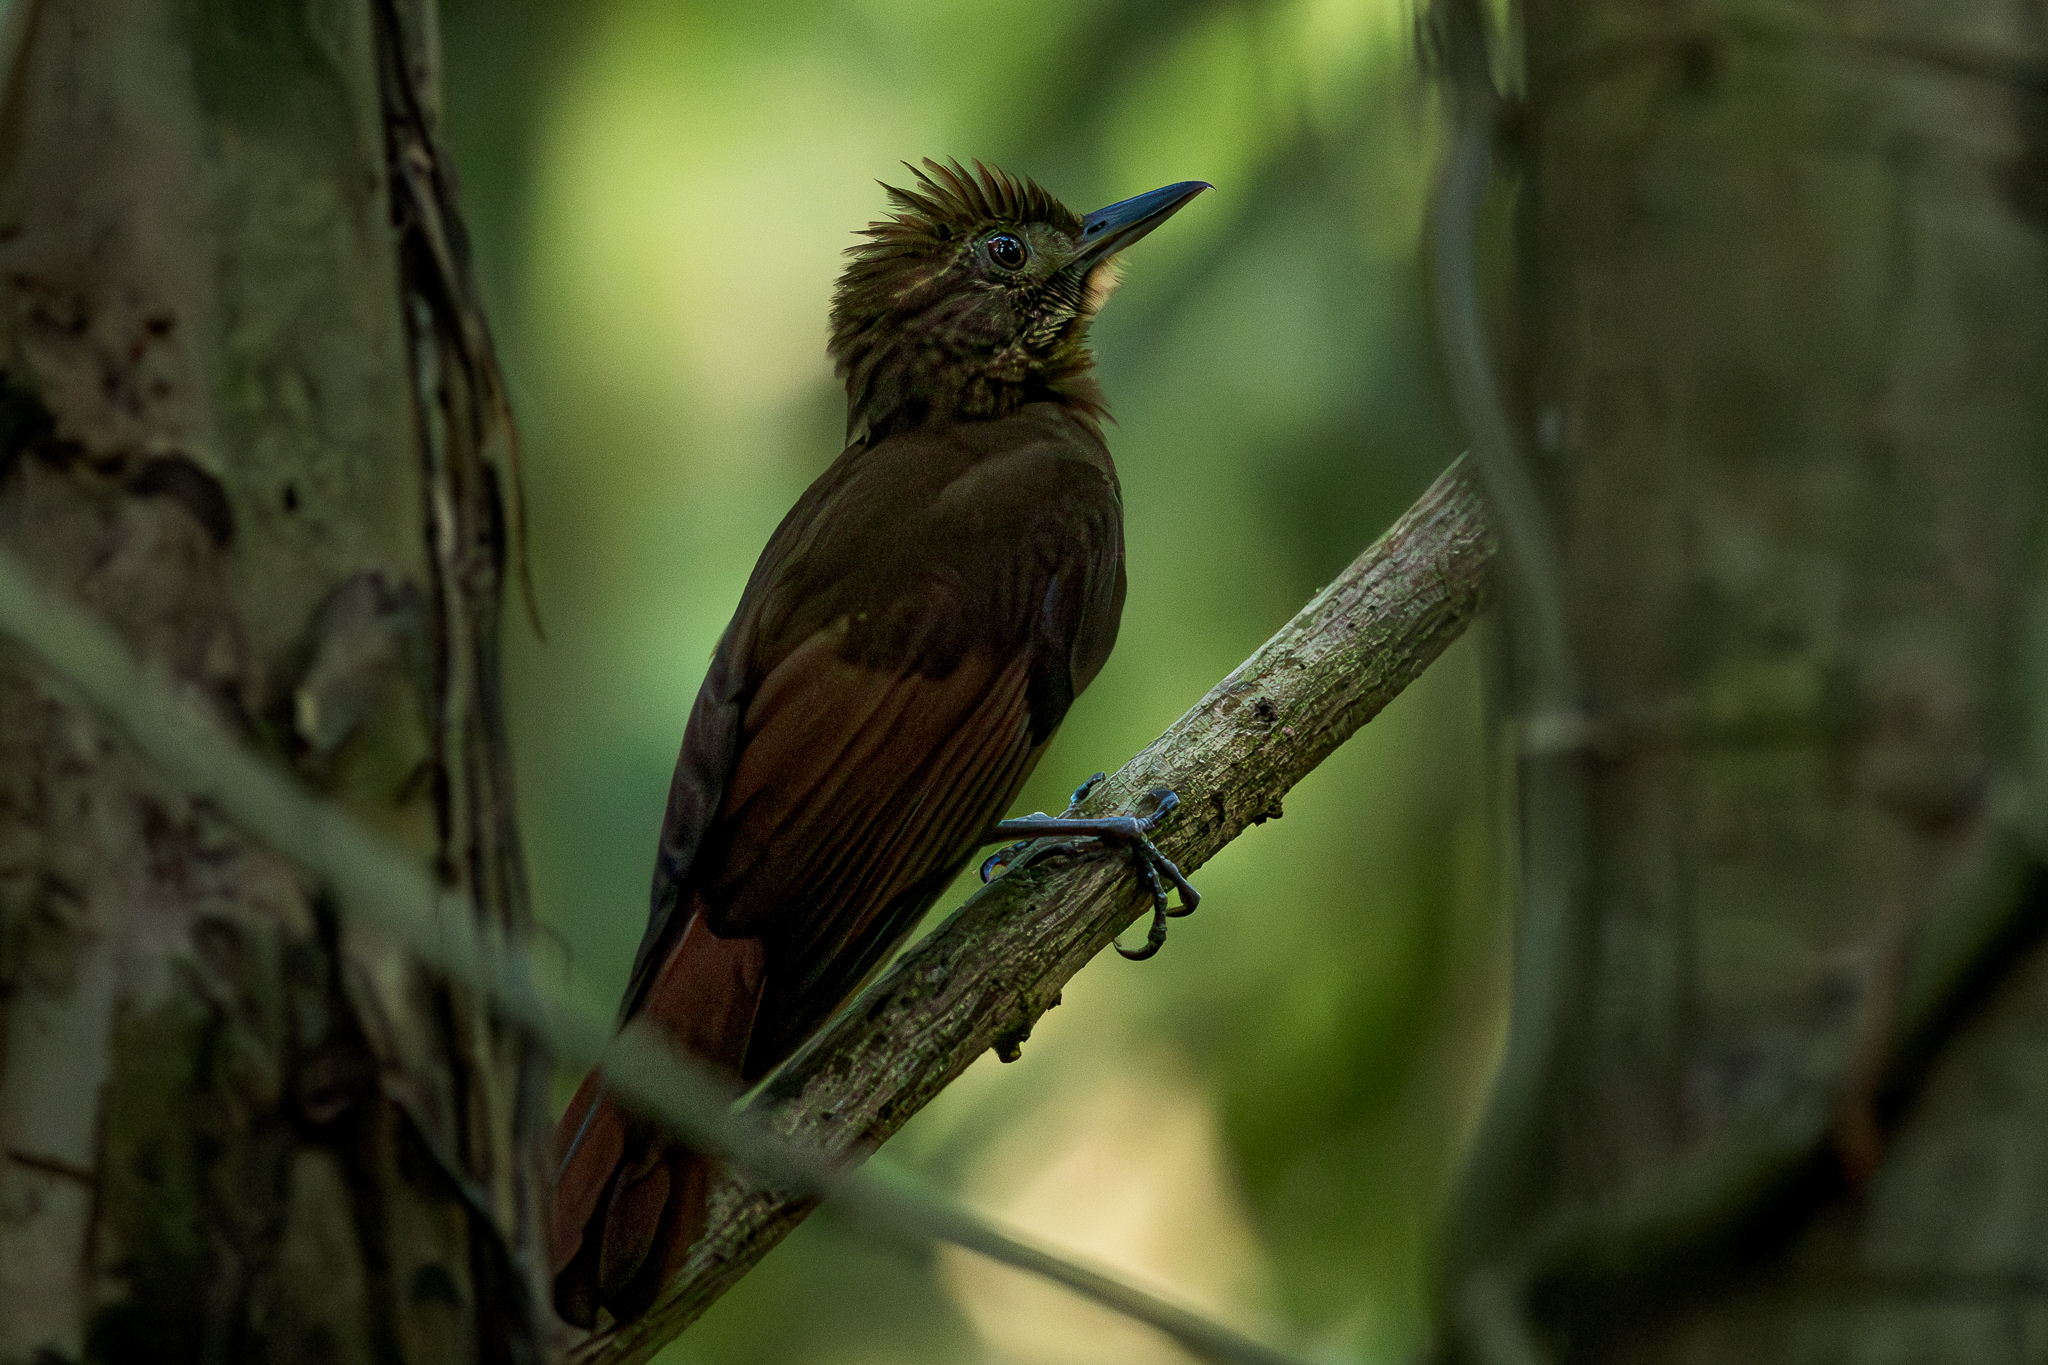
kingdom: Animalia
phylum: Chordata
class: Aves
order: Passeriformes
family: Furnariidae
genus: Dendrocincla
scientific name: Dendrocincla anabatina
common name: Tawny-winged woodcreeper
